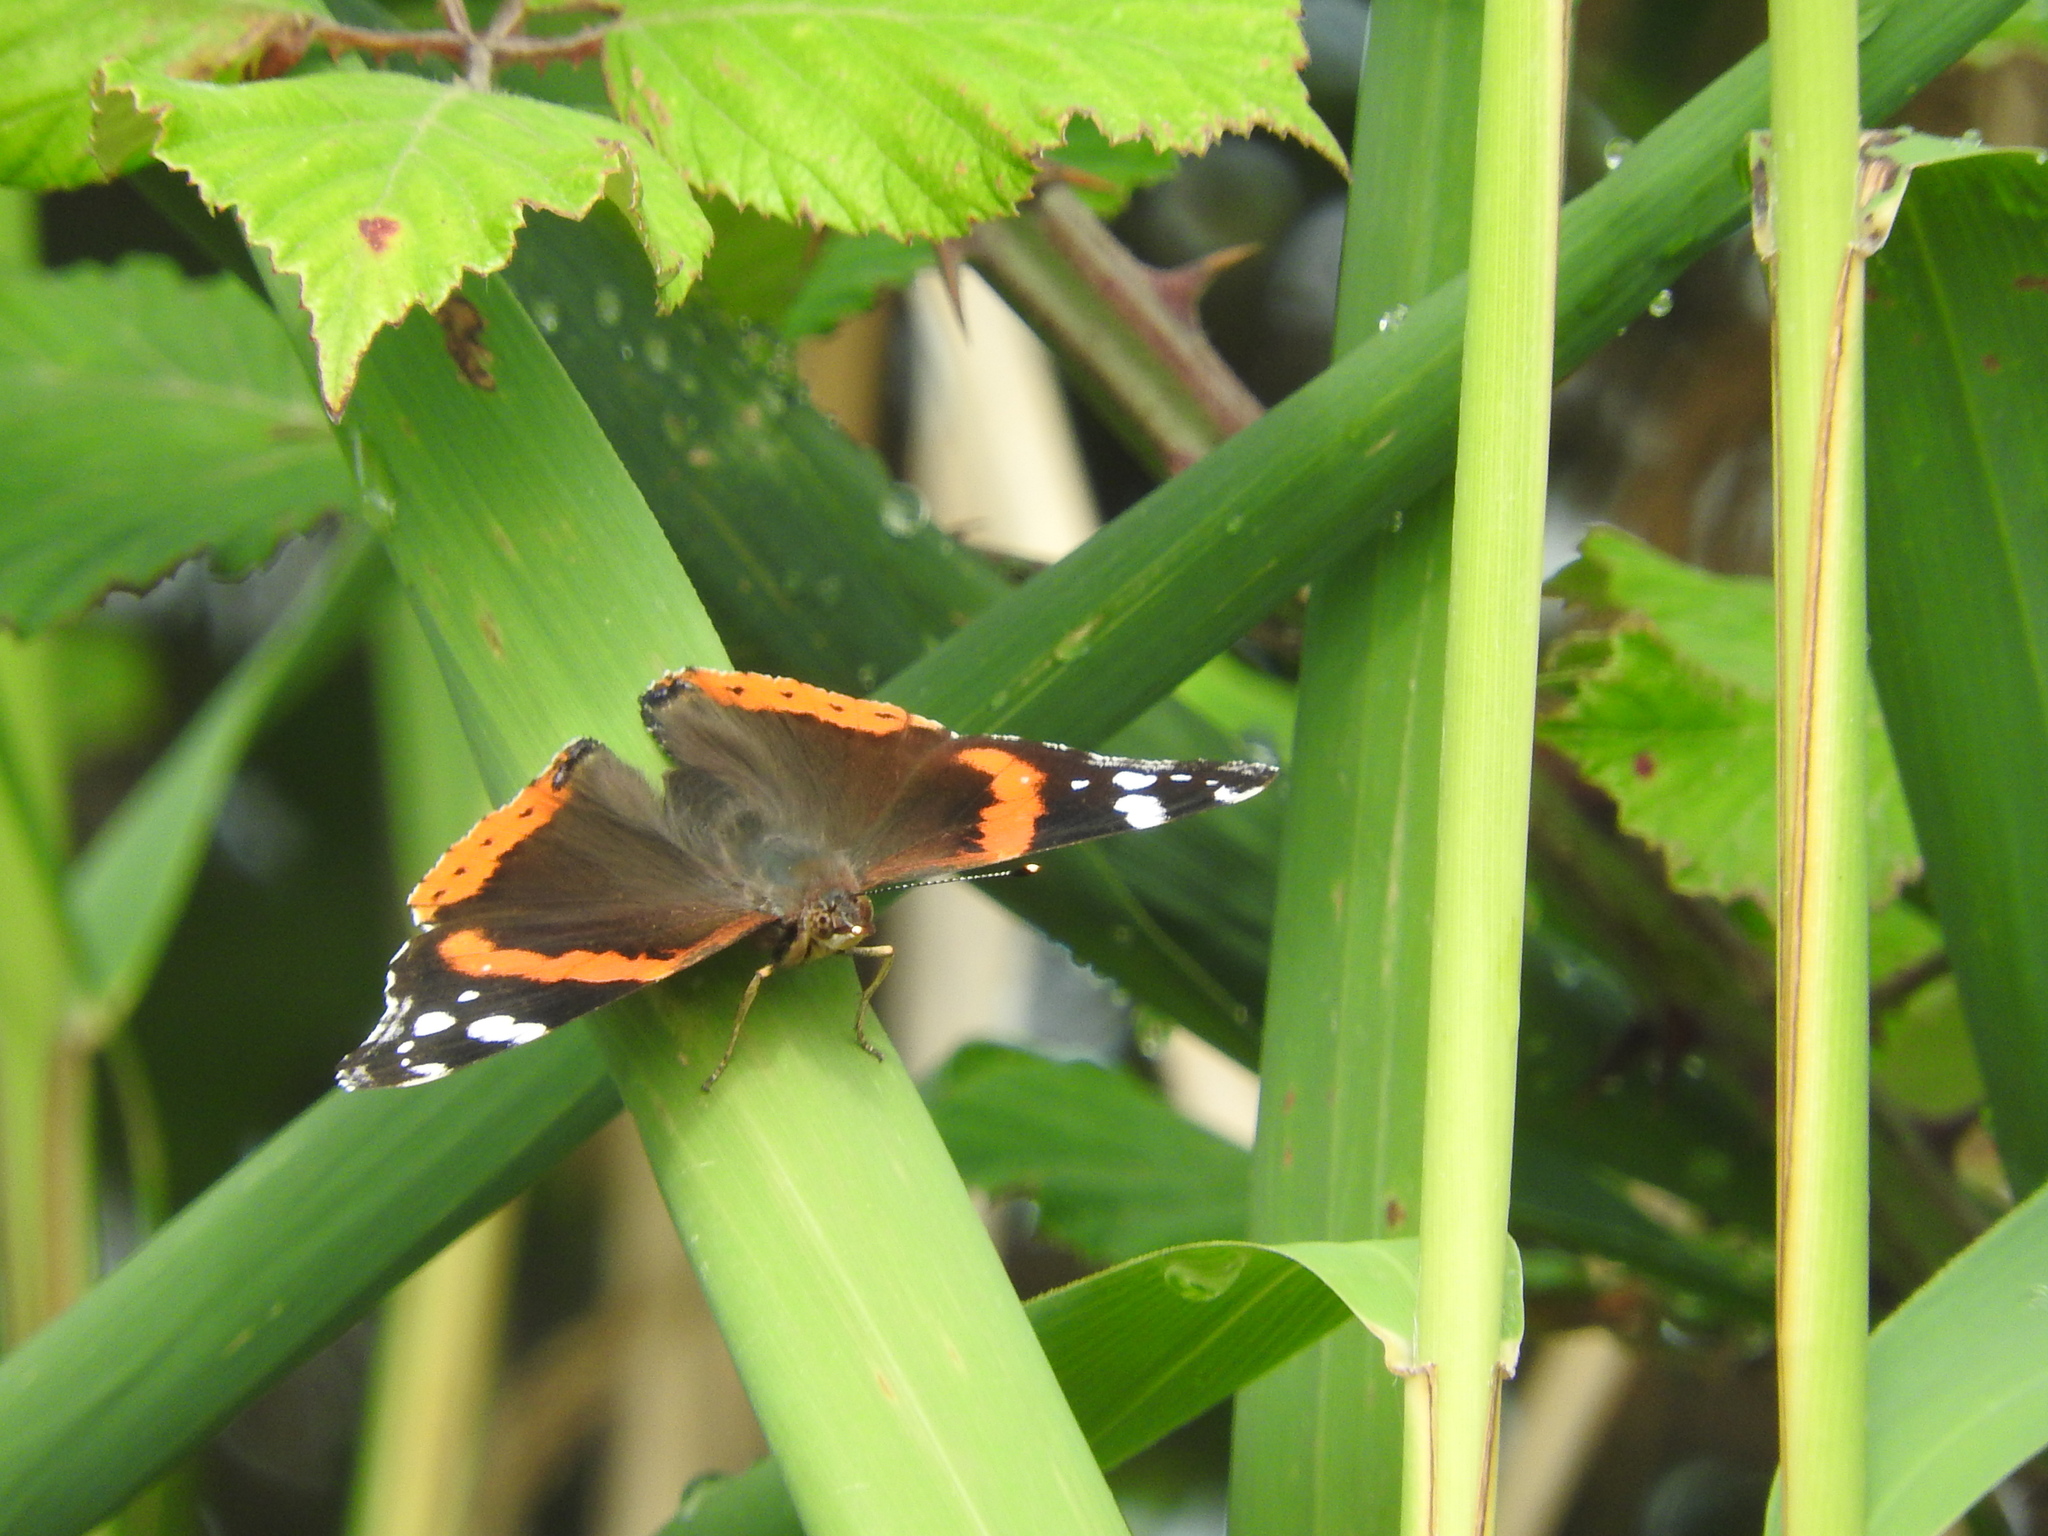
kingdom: Animalia
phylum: Arthropoda
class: Insecta
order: Lepidoptera
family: Nymphalidae
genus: Vanessa
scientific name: Vanessa atalanta
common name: Red admiral
